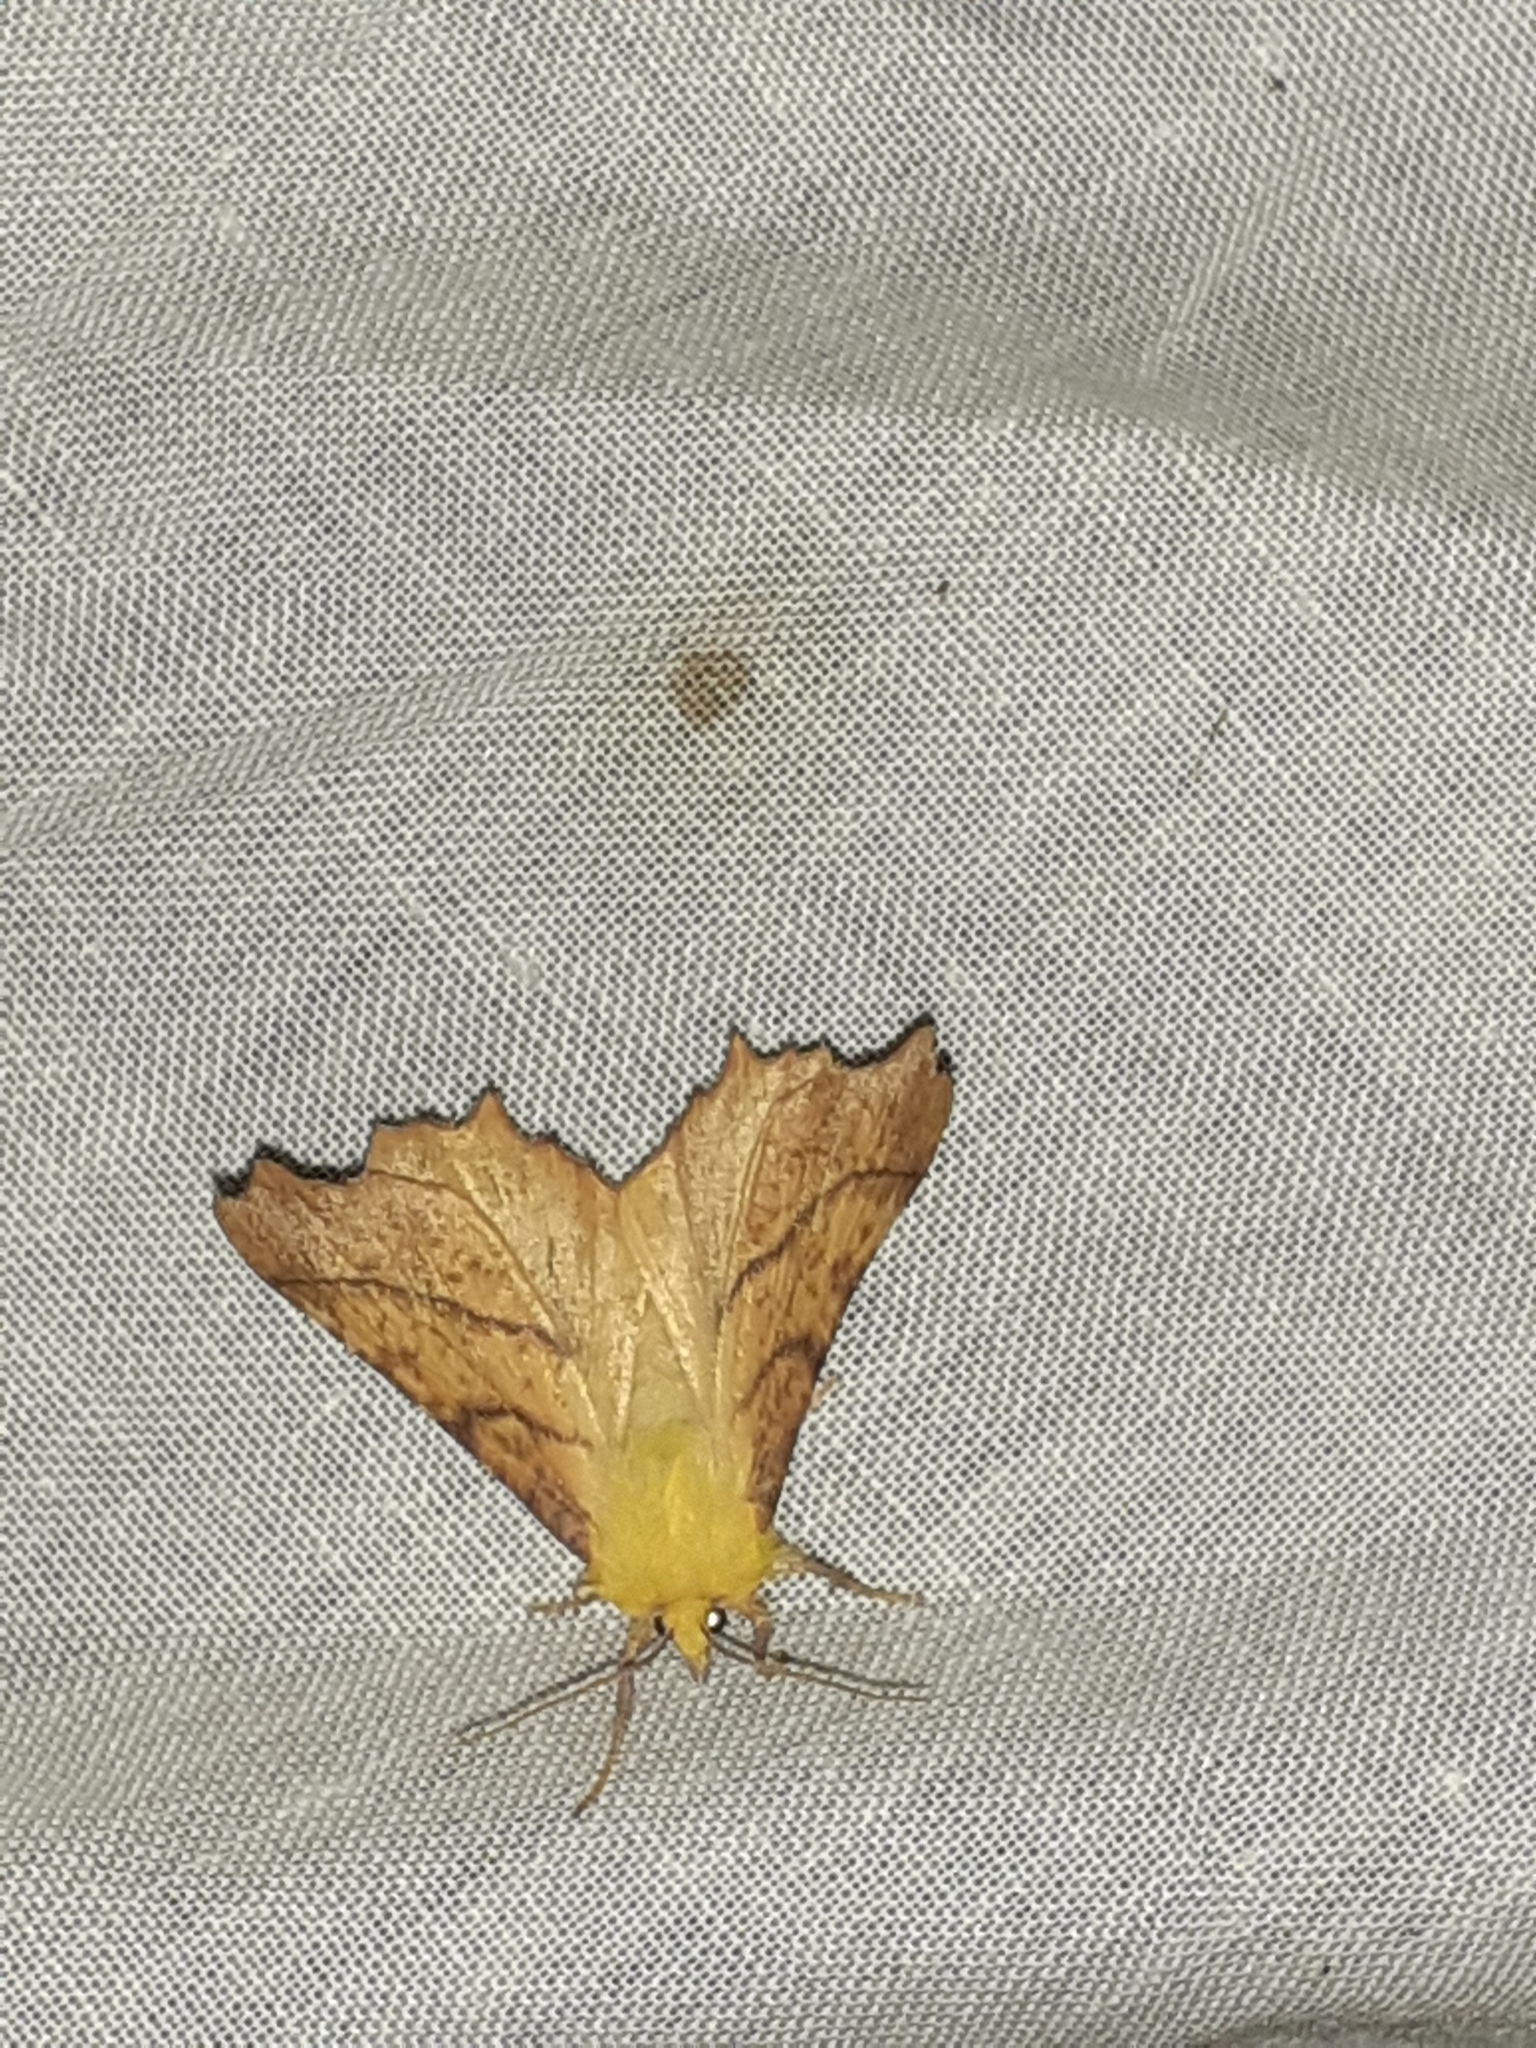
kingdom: Animalia
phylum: Arthropoda
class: Insecta
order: Lepidoptera
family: Geometridae
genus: Ennomos
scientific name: Ennomos alniaria
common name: Canary-shouldered thorn
